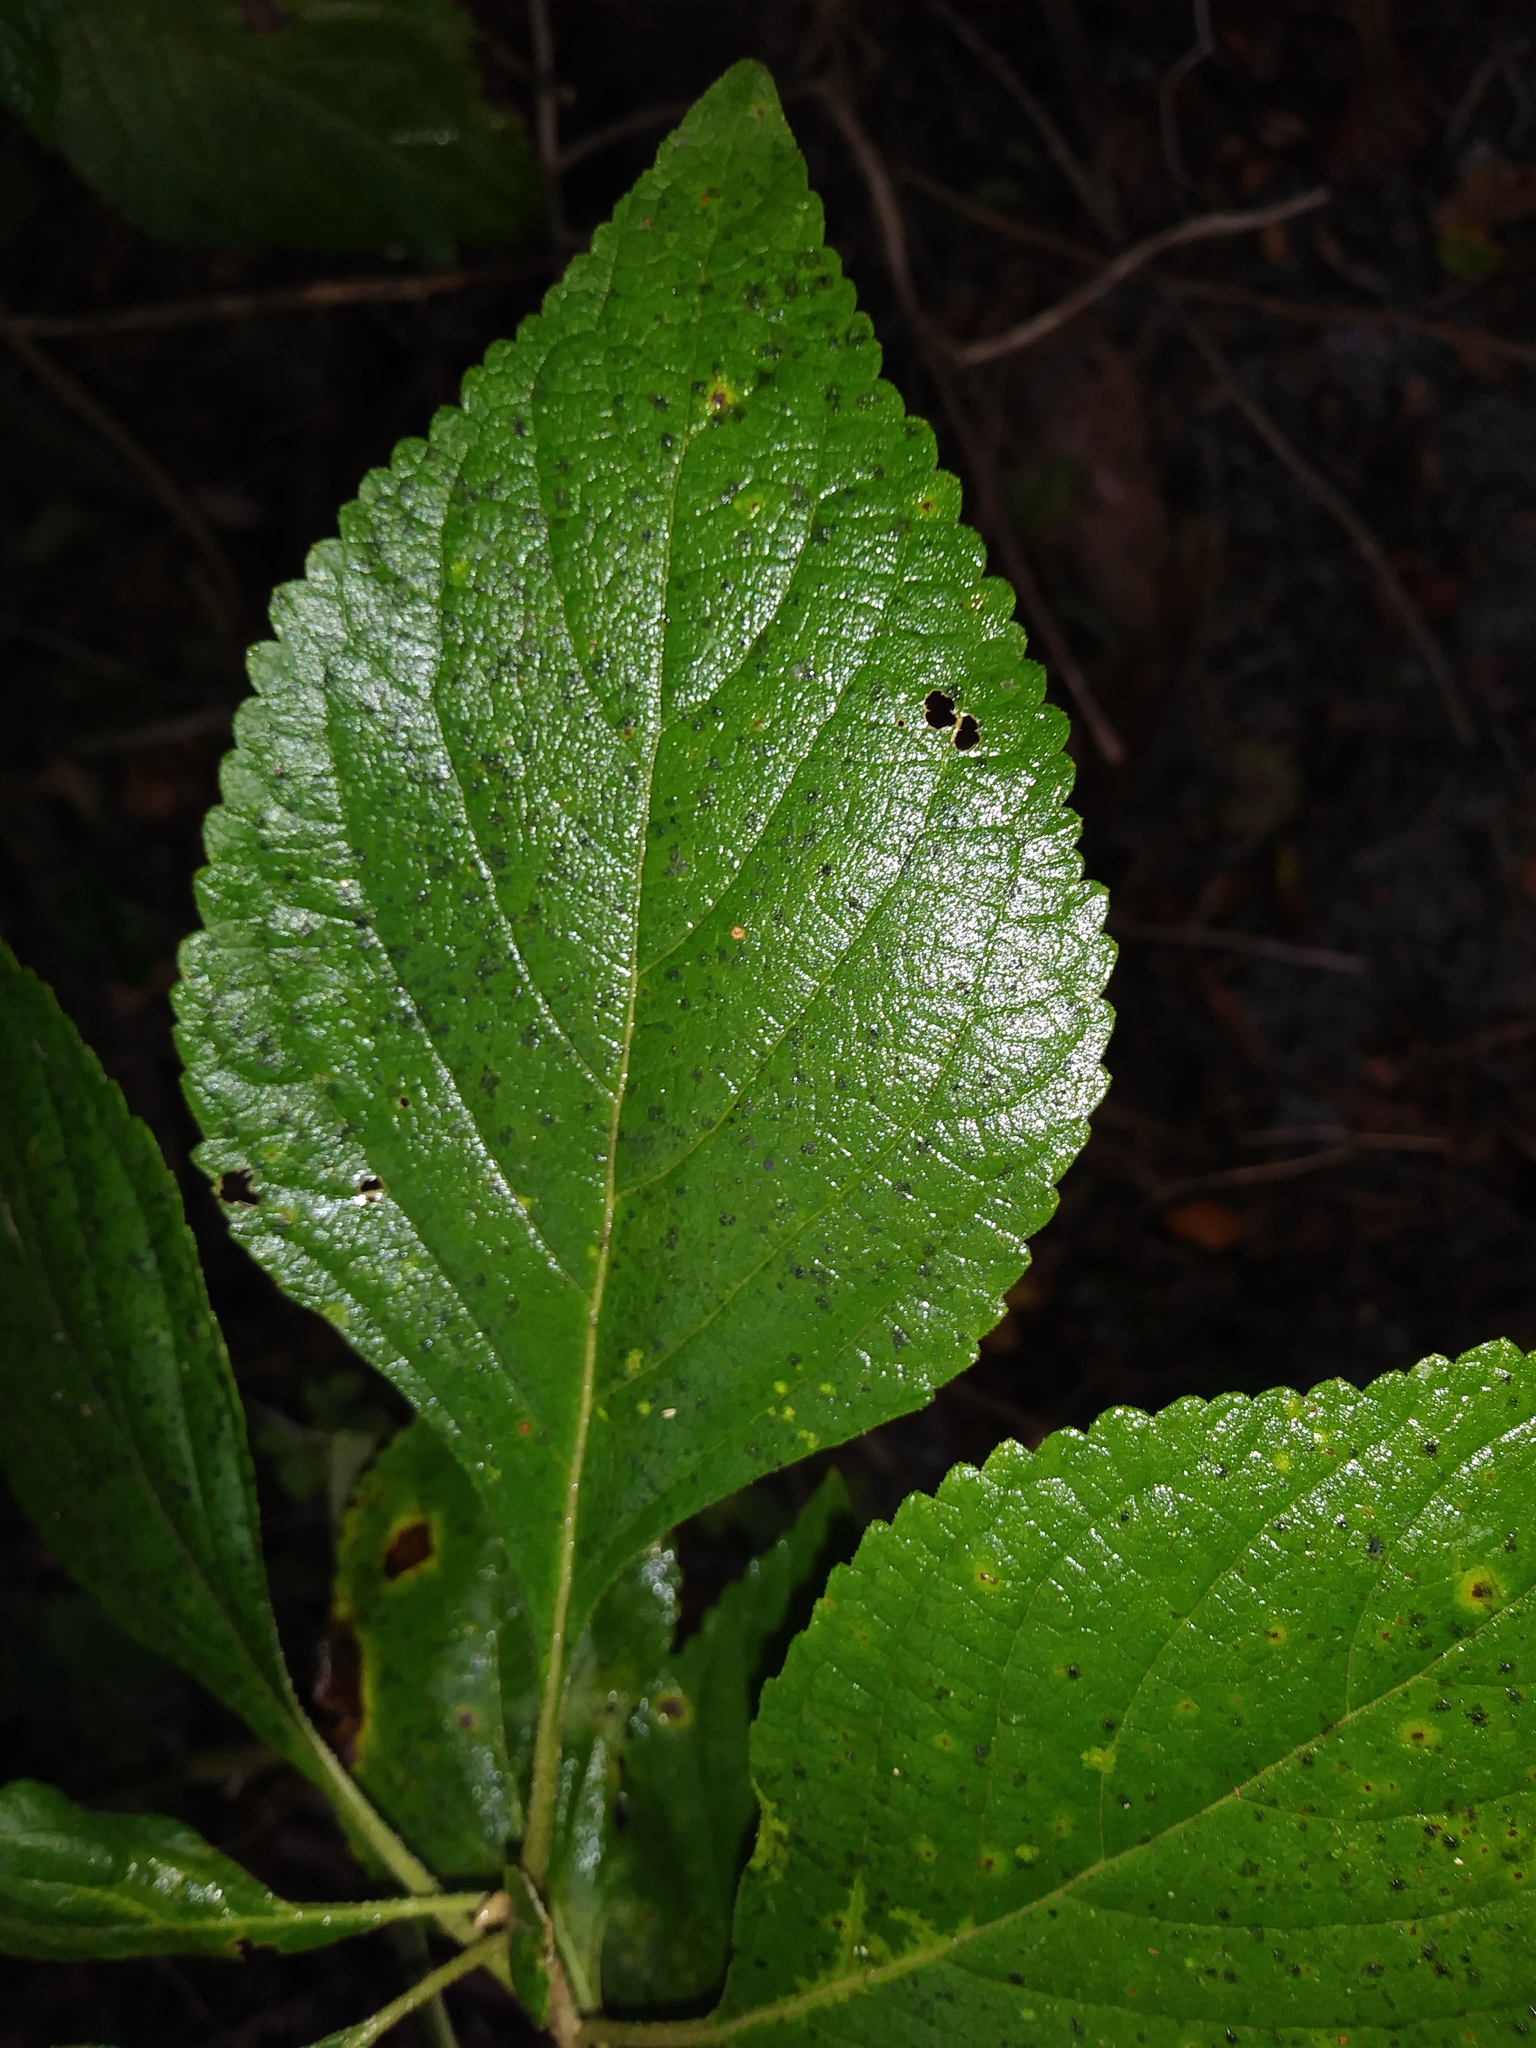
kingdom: Plantae
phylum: Tracheophyta
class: Magnoliopsida
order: Lamiales
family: Lamiaceae
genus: Callicarpa
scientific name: Callicarpa americana
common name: American beautyberry
